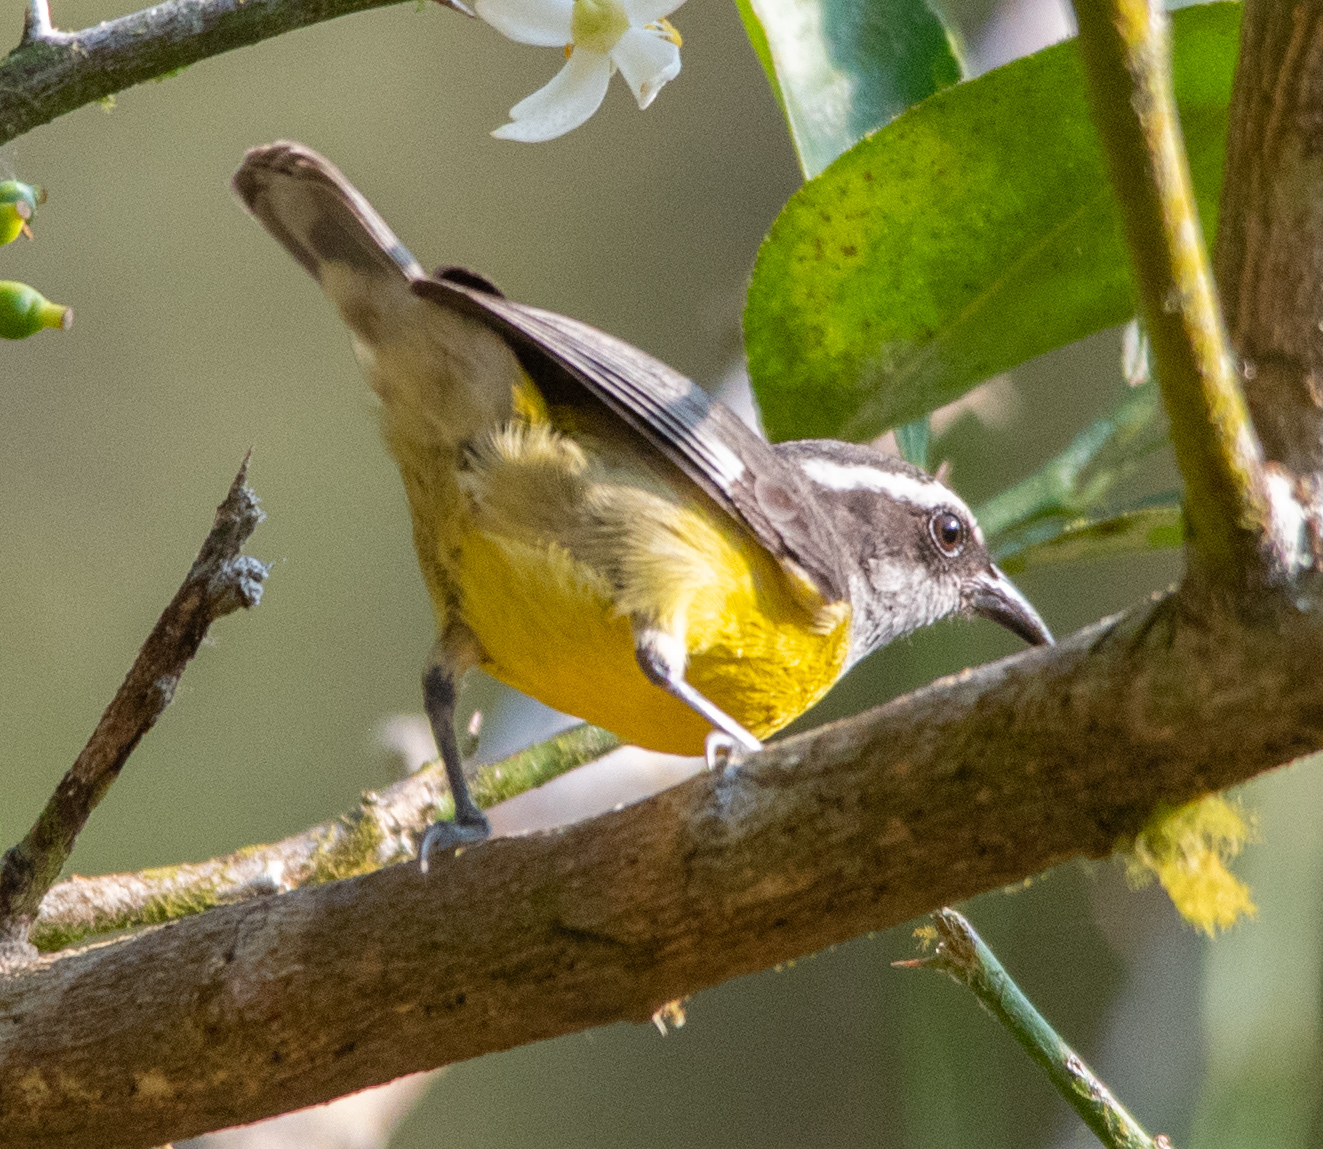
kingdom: Animalia
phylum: Chordata
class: Aves
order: Passeriformes
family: Thraupidae
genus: Coereba
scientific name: Coereba flaveola
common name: Bananaquit
